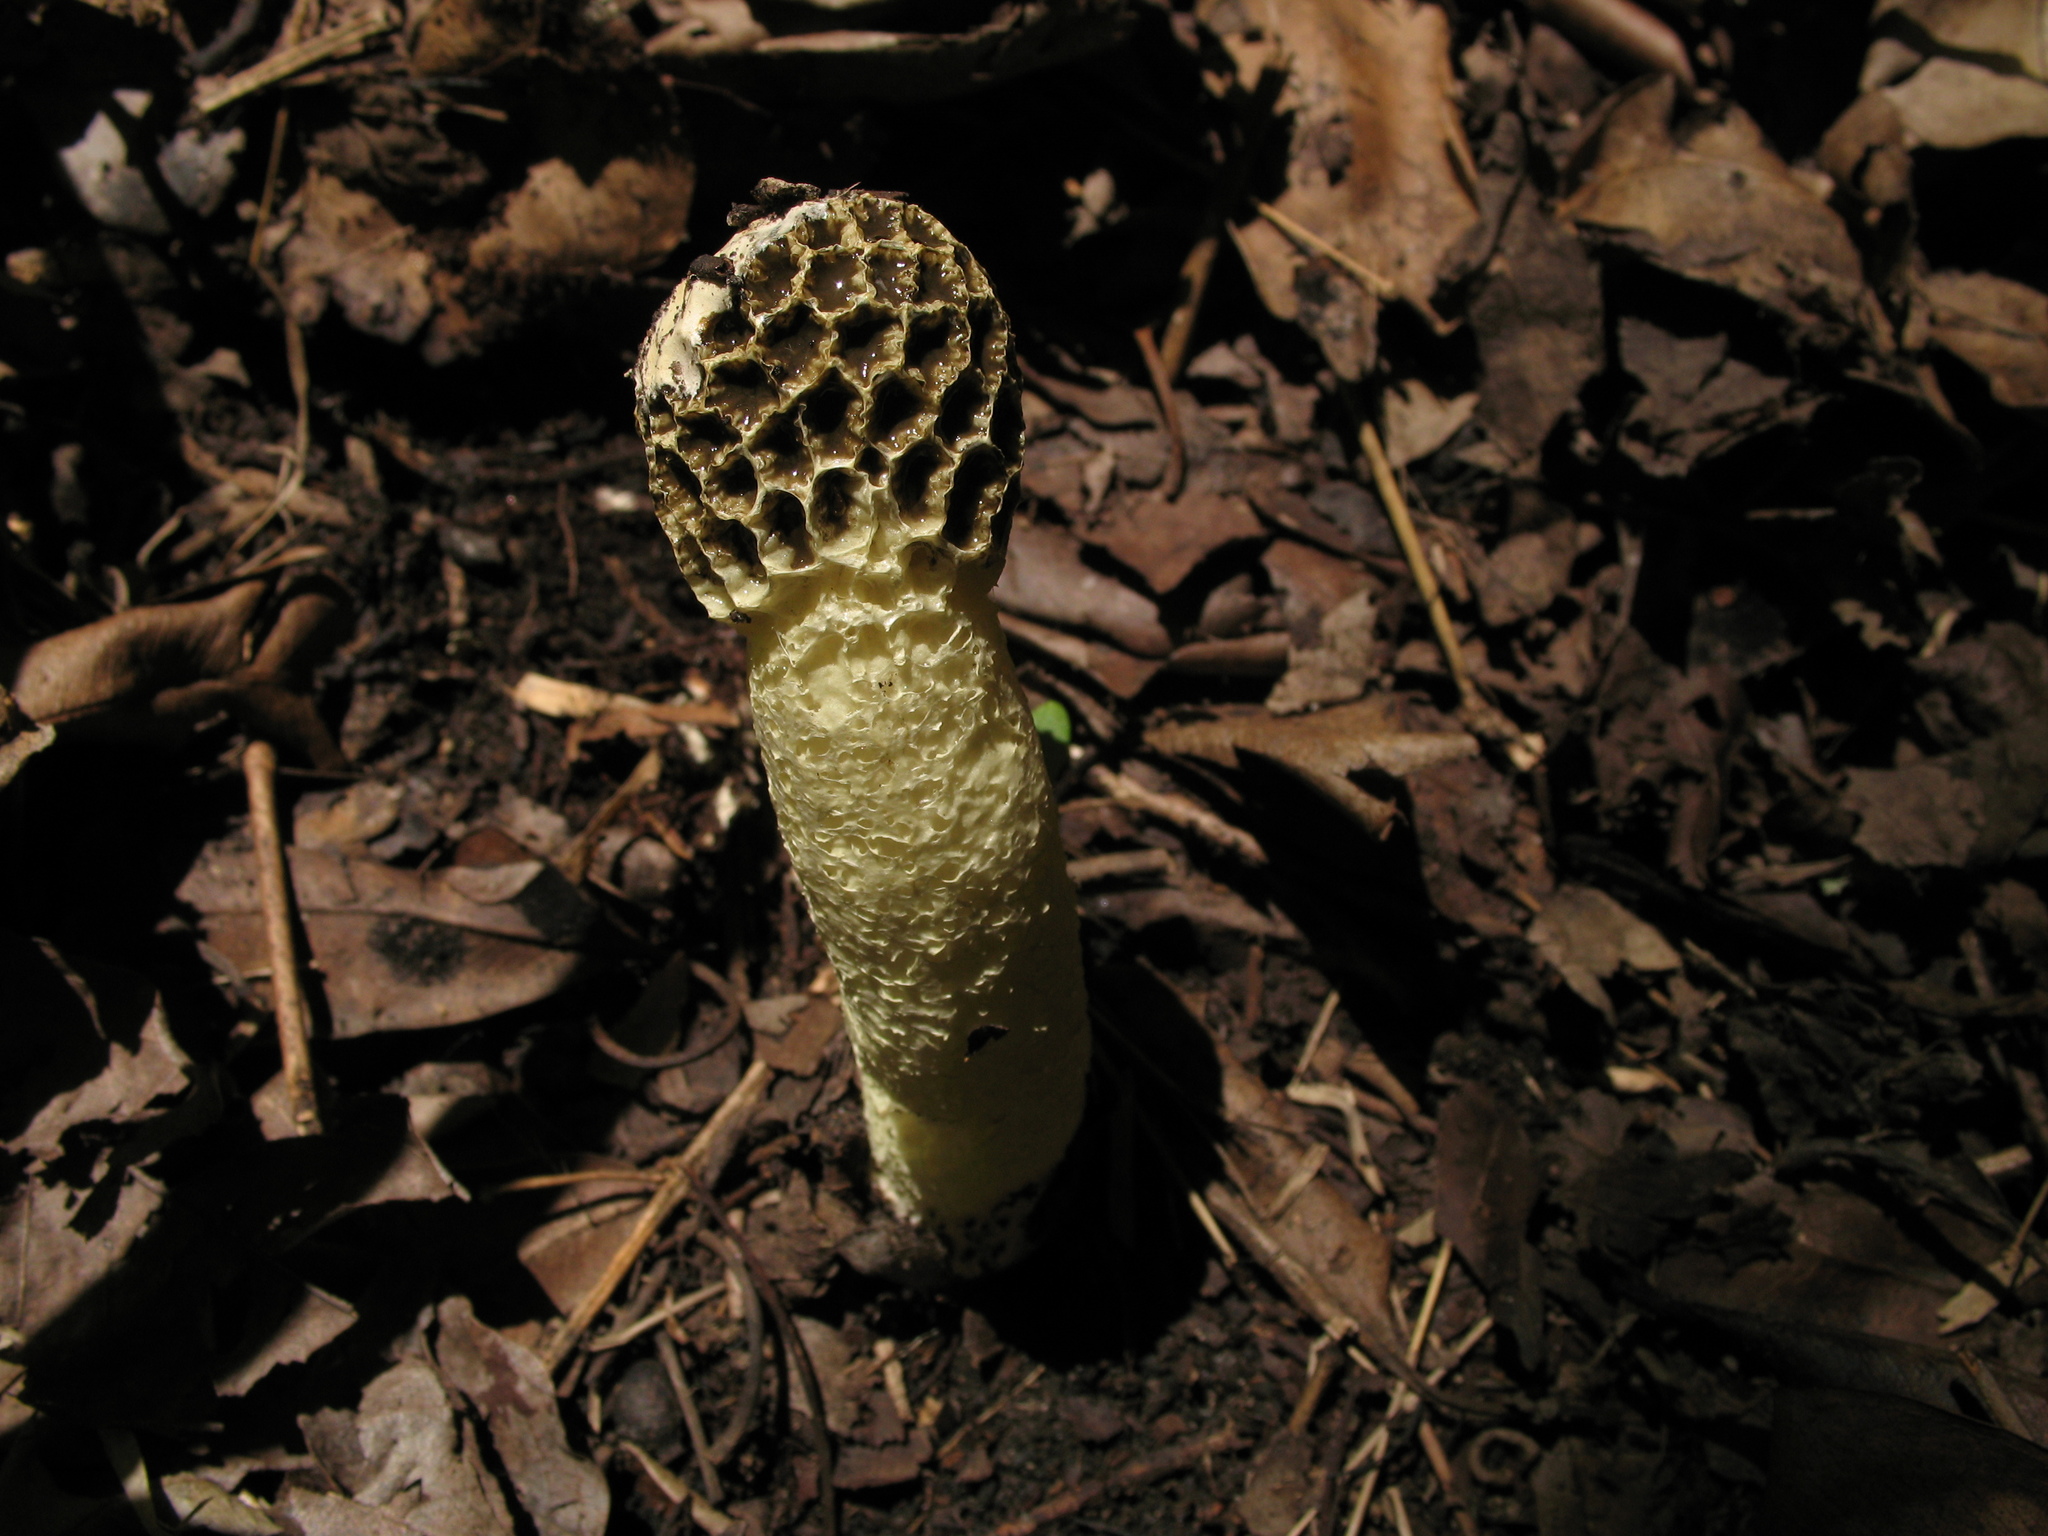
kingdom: Fungi
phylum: Basidiomycota
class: Agaricomycetes
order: Phallales
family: Phallaceae
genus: Lysurus
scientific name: Lysurus periphragmoides
